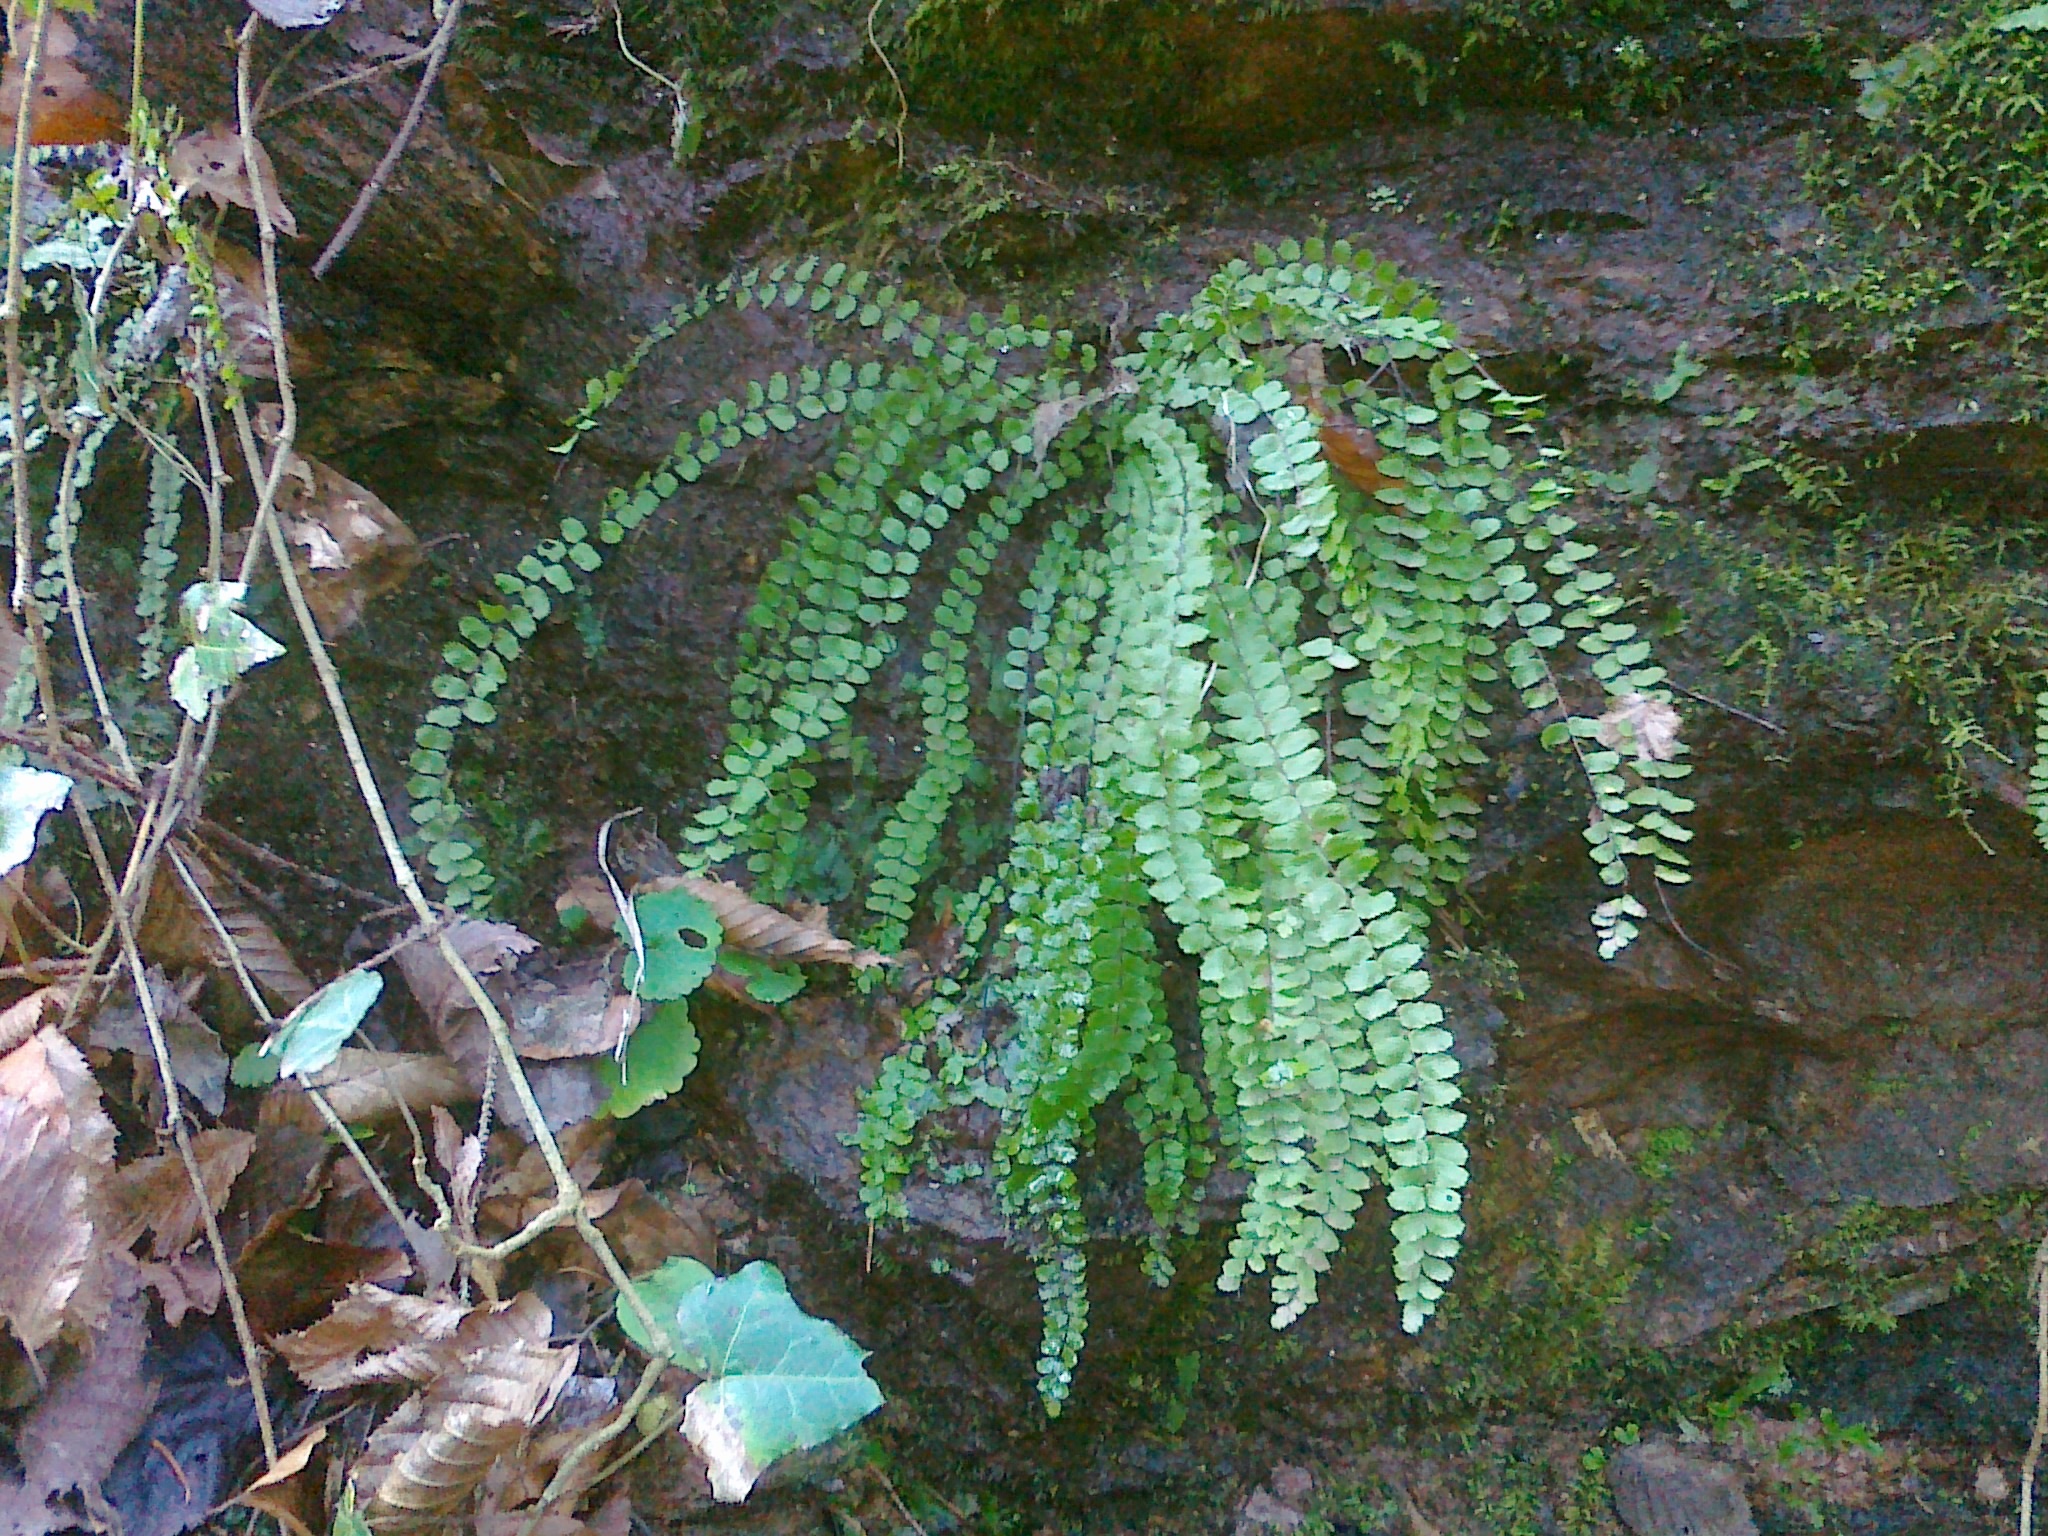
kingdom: Plantae
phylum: Tracheophyta
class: Polypodiopsida
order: Polypodiales
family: Aspleniaceae
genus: Asplenium
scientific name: Asplenium trichomanes
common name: Maidenhair spleenwort
